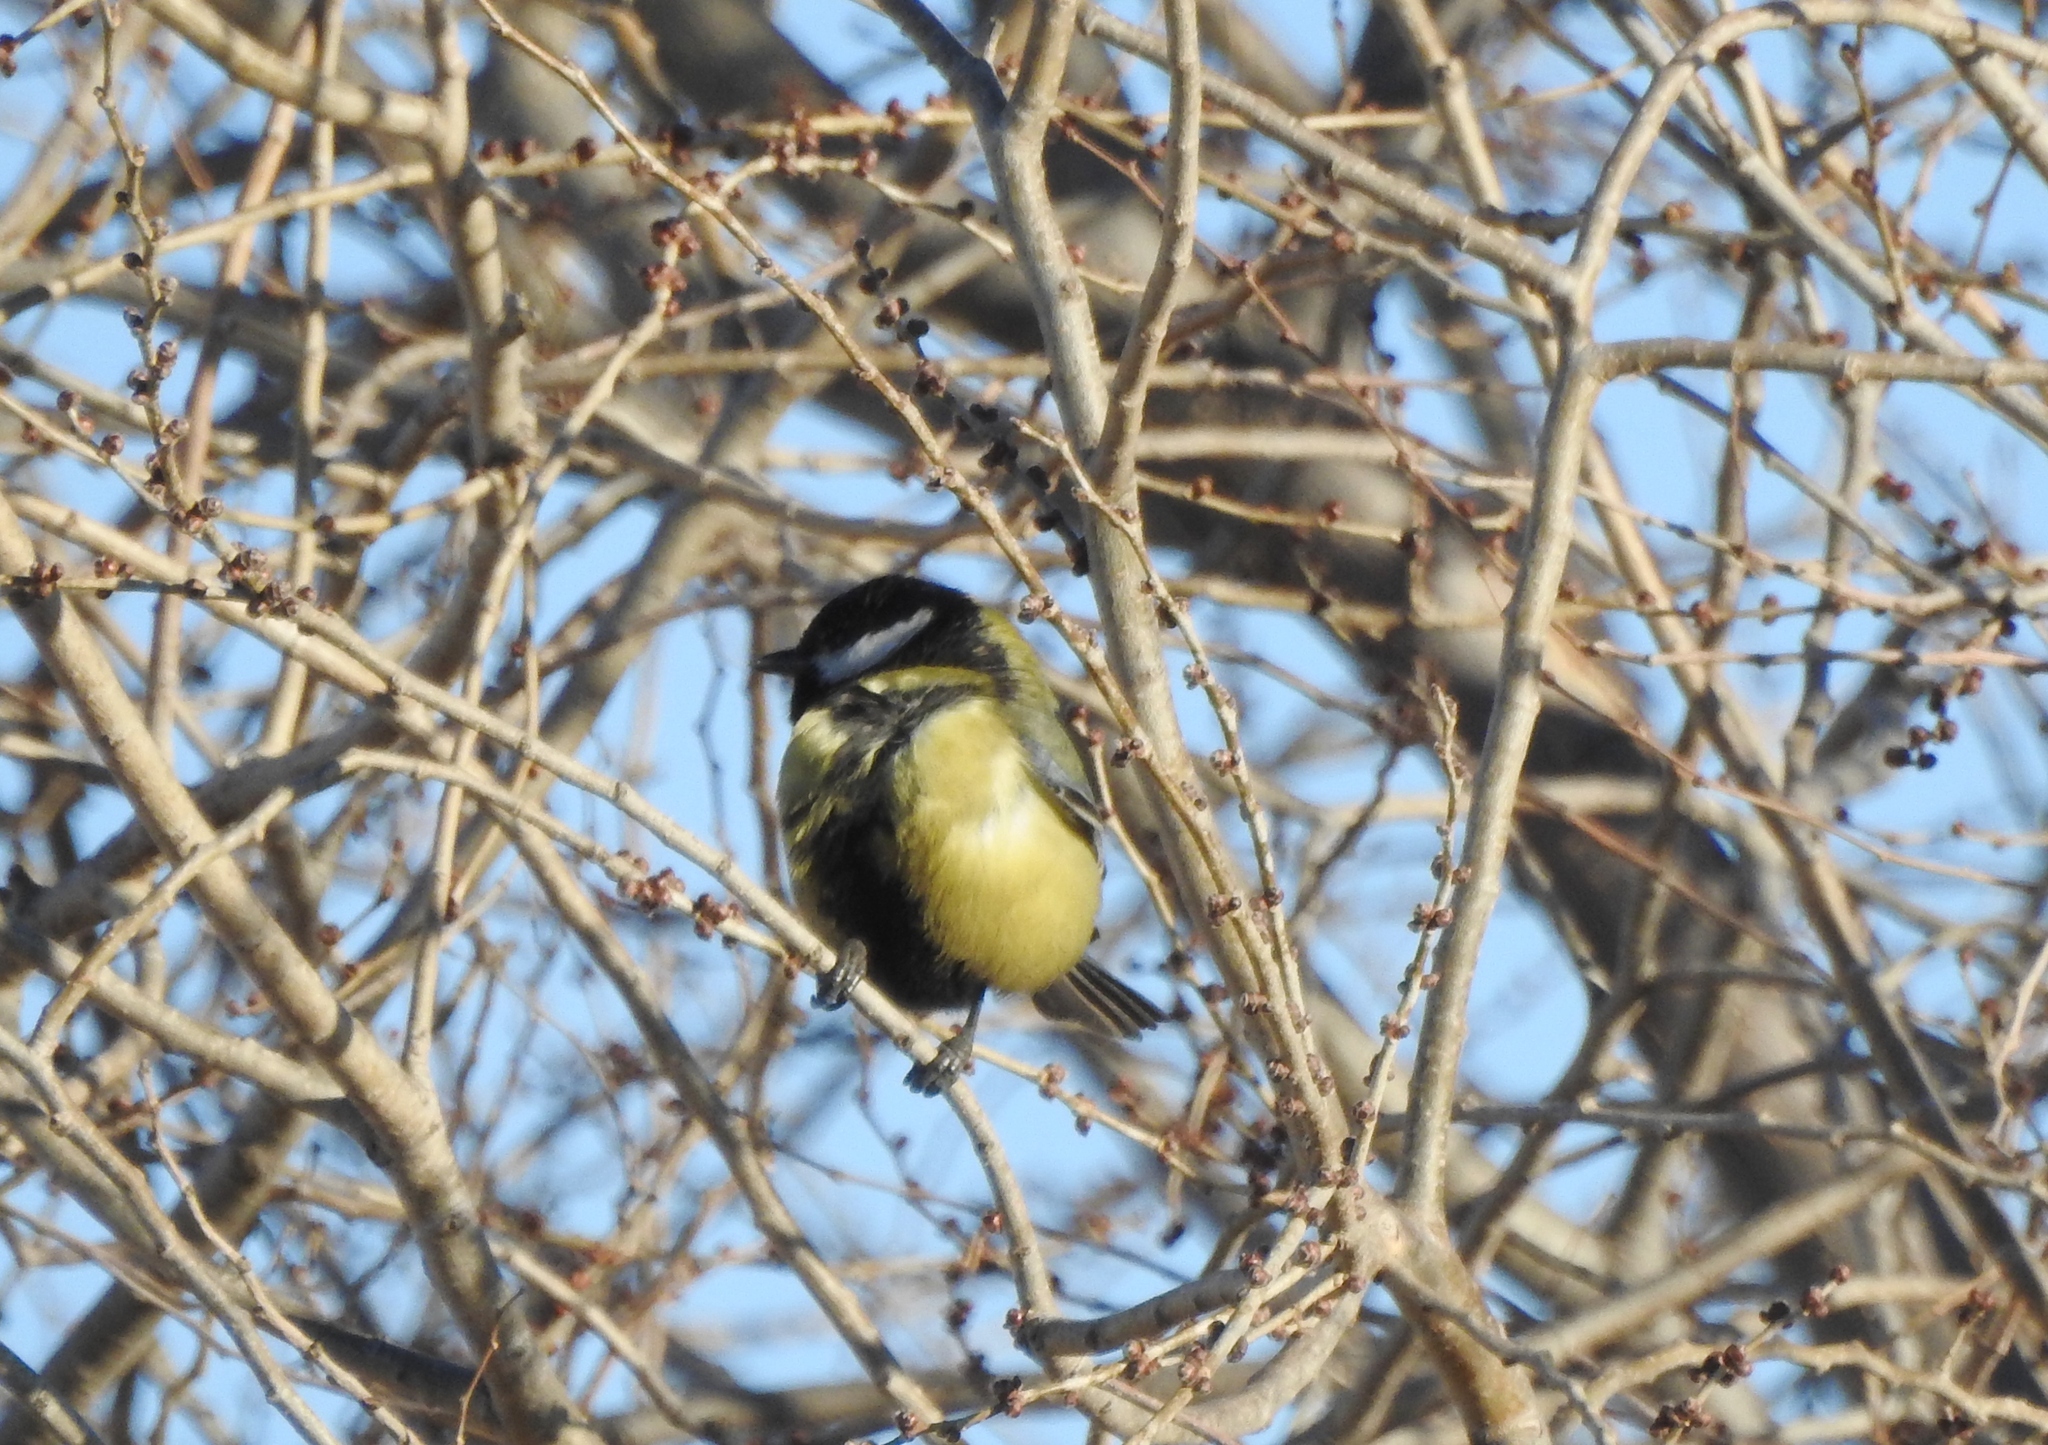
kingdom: Animalia
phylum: Chordata
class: Aves
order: Passeriformes
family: Paridae
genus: Parus
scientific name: Parus major
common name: Great tit
